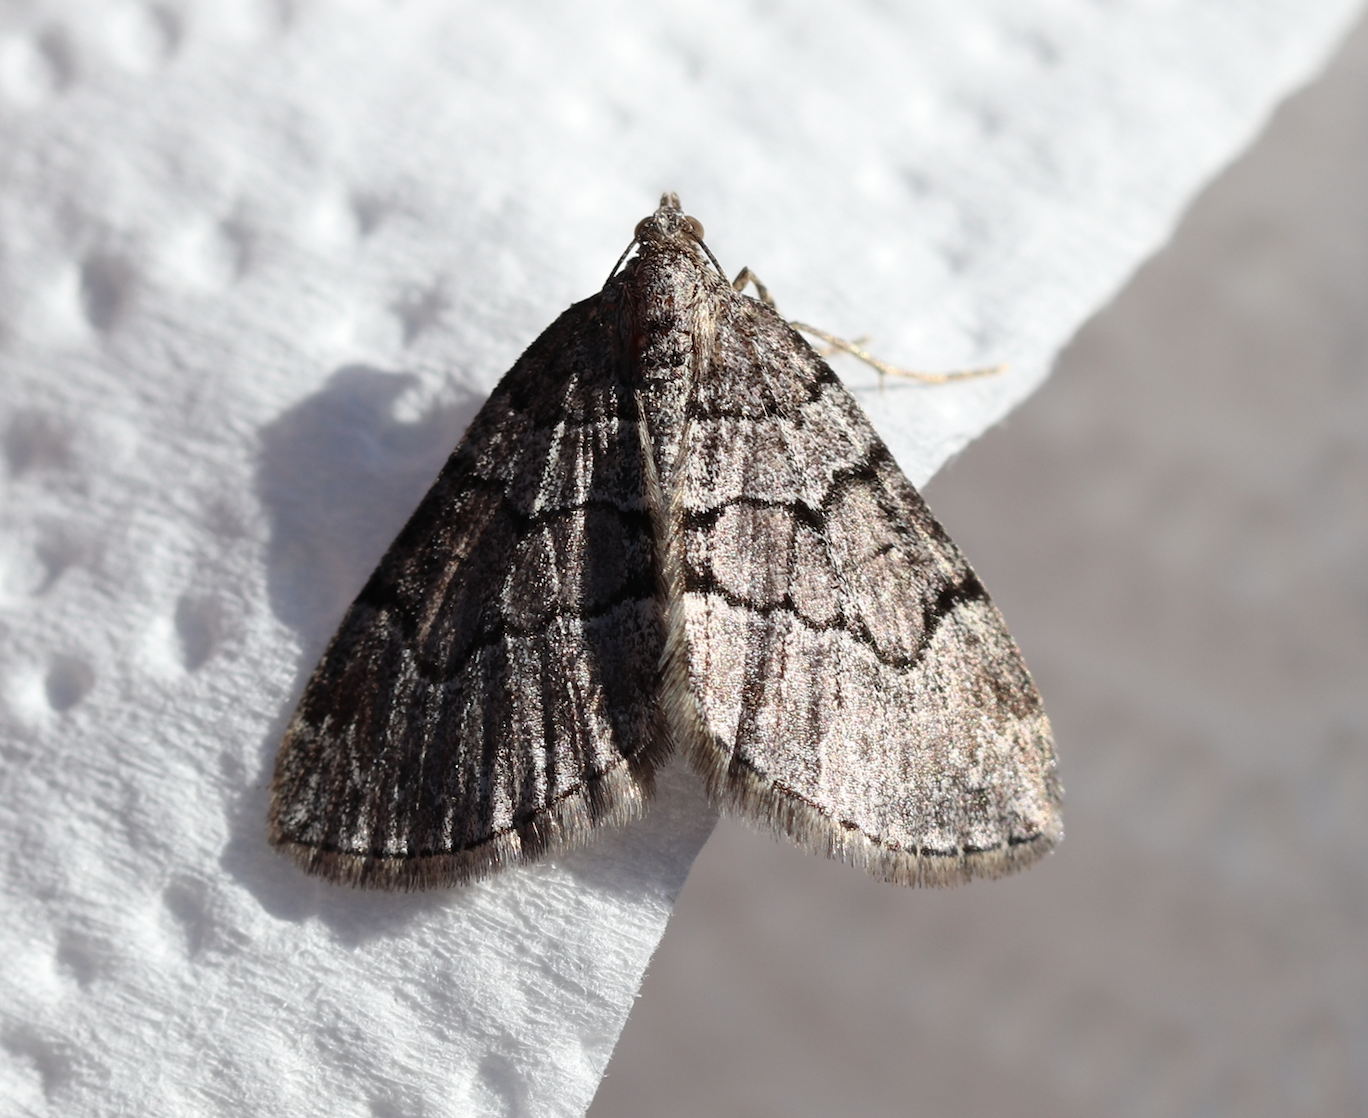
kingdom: Animalia
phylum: Arthropoda
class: Insecta
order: Lepidoptera
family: Geometridae
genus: Thera
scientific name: Thera cognata
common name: Chestnut-coloured carpet
